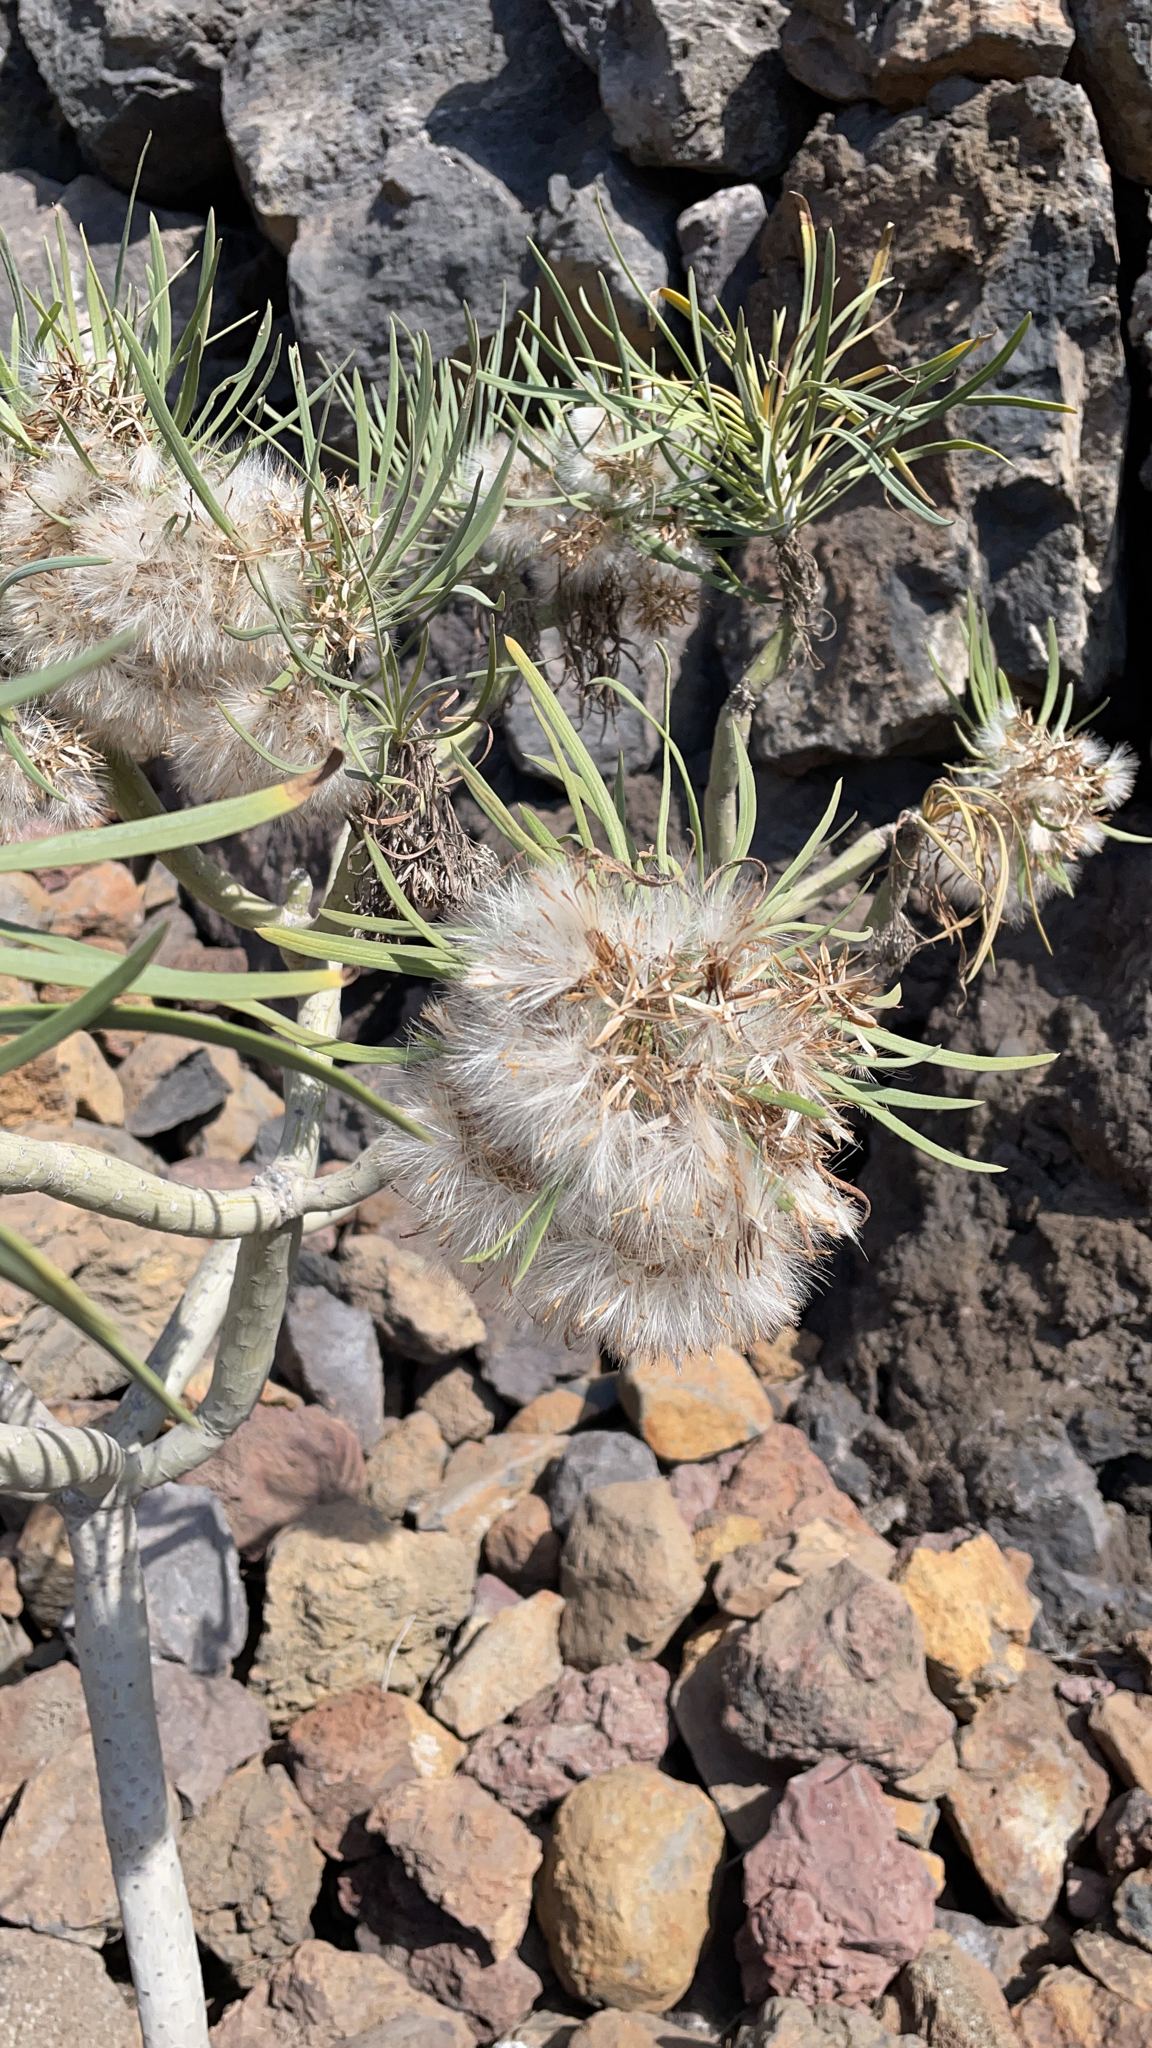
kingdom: Plantae
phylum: Tracheophyta
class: Magnoliopsida
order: Asterales
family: Asteraceae
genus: Kleinia
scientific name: Kleinia neriifolia
